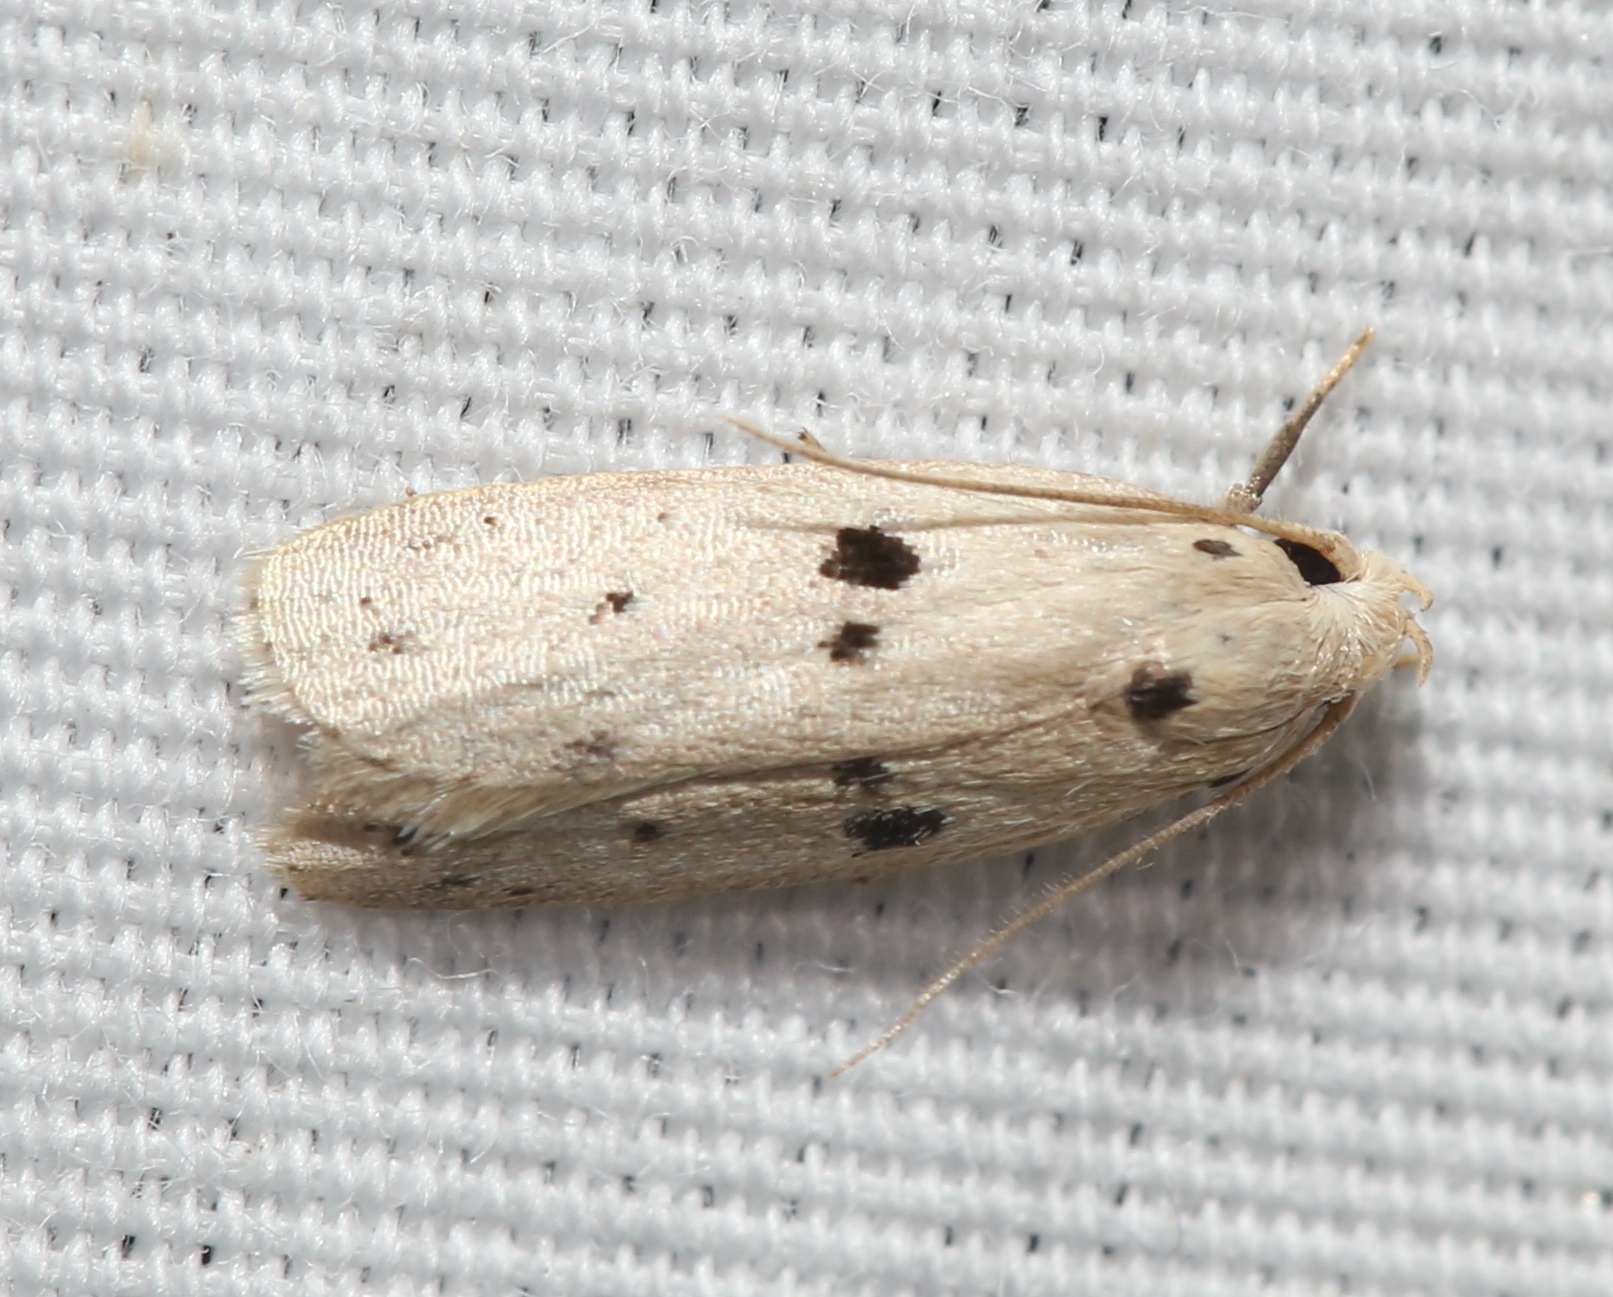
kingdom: Animalia
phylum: Arthropoda
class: Insecta
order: Lepidoptera
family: Peleopodidae
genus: Scythropiodes
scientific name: Scythropiodes issikii
